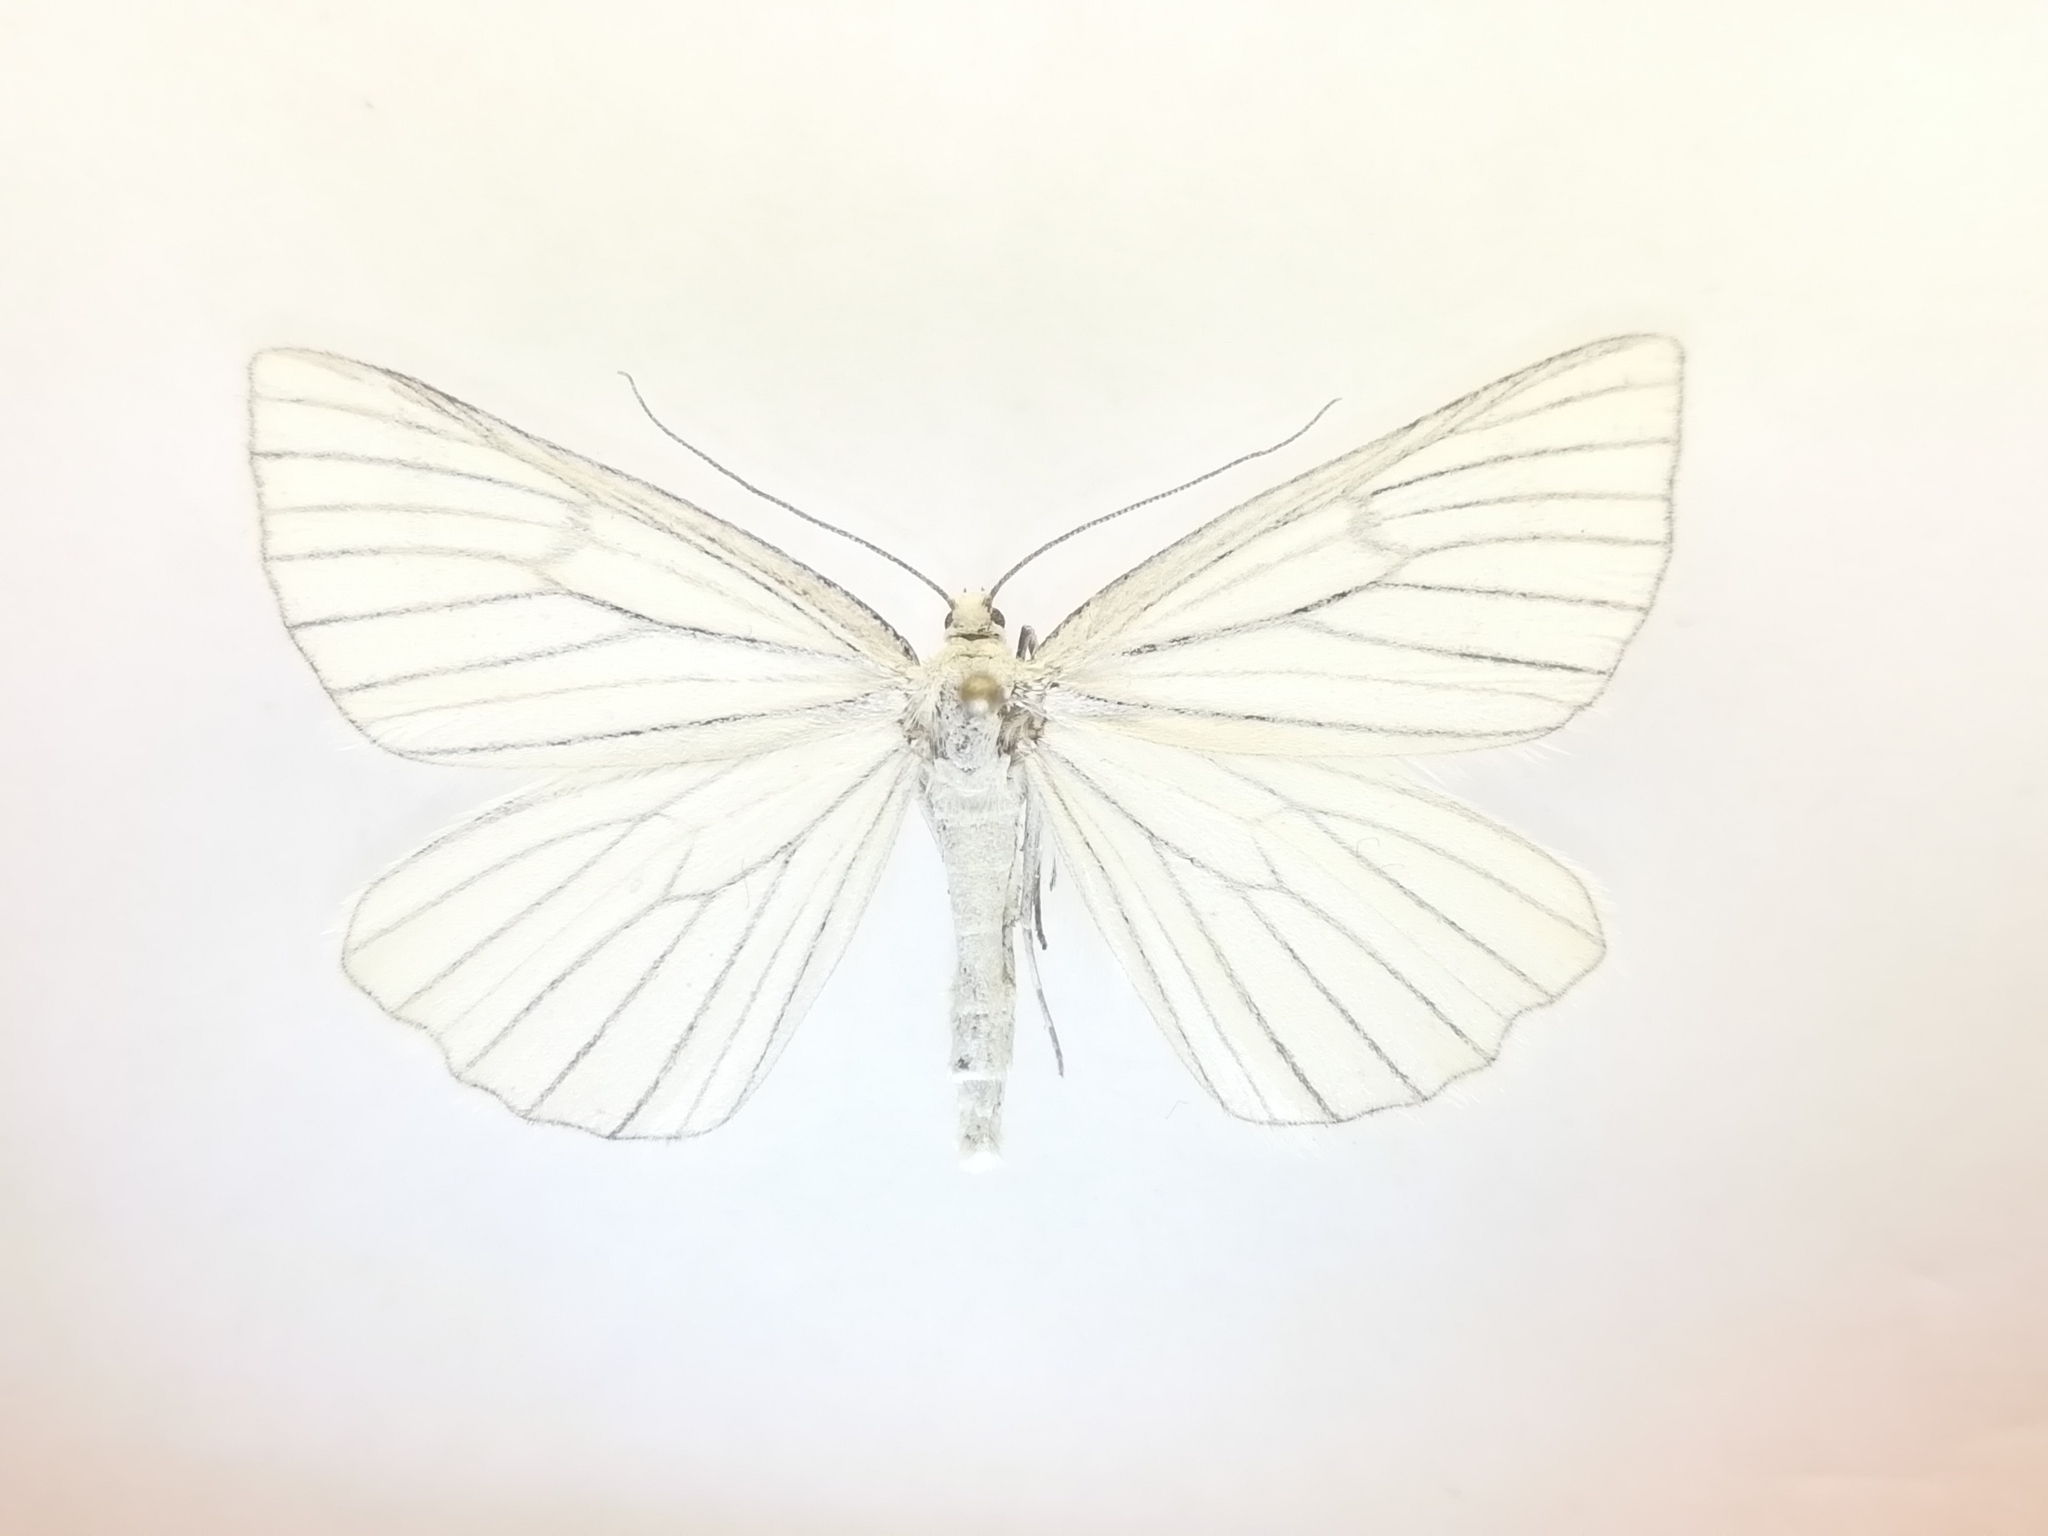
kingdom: Animalia
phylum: Arthropoda
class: Insecta
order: Lepidoptera
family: Geometridae
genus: Siona
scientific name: Siona lineata
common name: Black-veined moth
